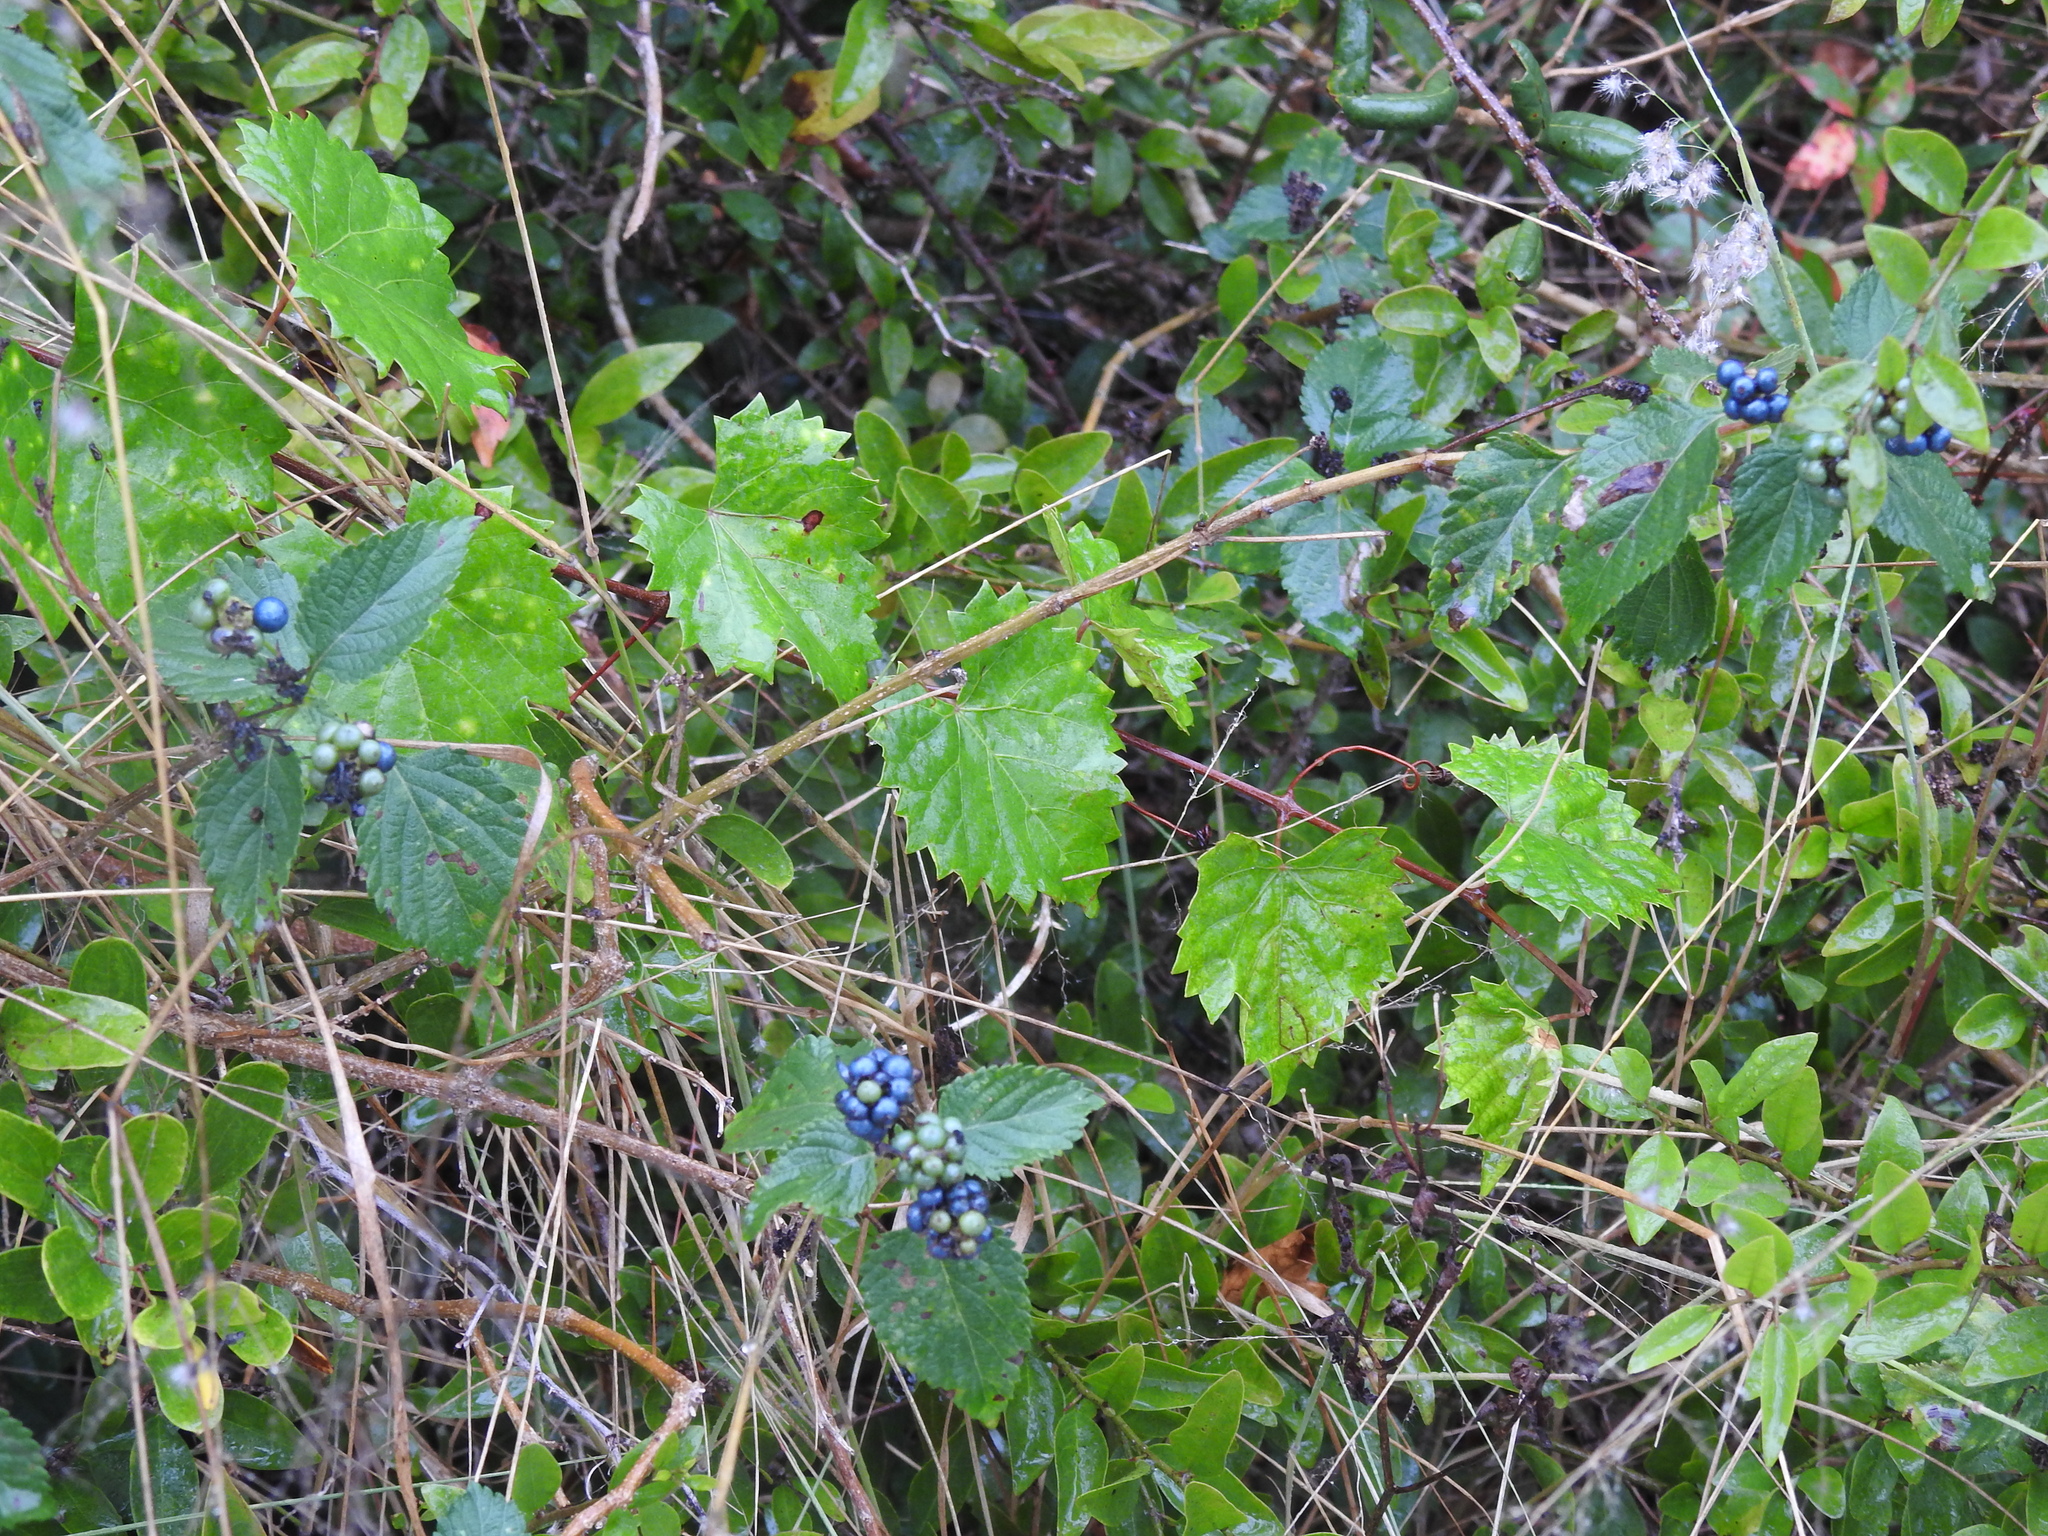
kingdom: Plantae
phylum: Tracheophyta
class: Magnoliopsida
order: Lamiales
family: Verbenaceae
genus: Lantana
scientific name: Lantana strigocamara
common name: Lantana
